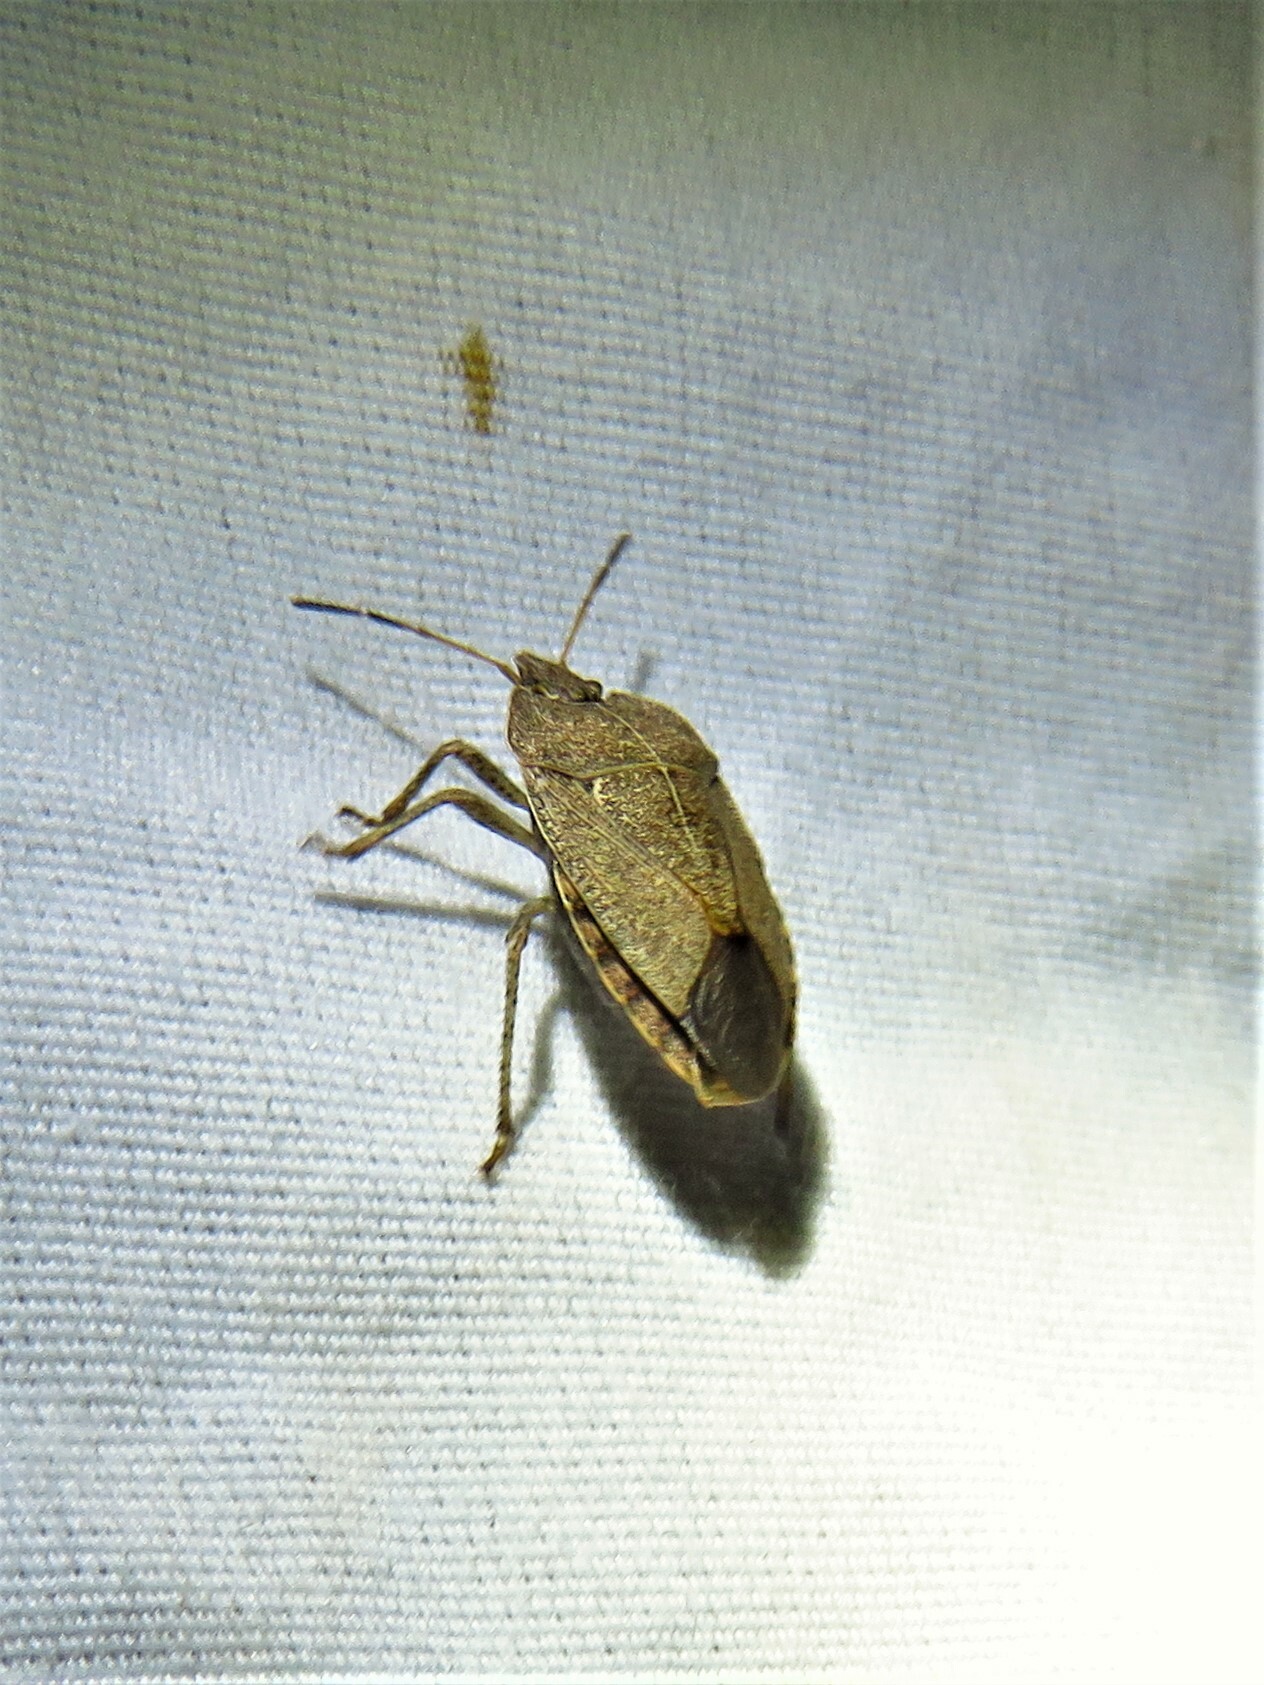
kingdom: Animalia
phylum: Arthropoda
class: Insecta
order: Hemiptera
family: Pentatomidae
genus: Menecles
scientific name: Menecles insertus
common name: Elf shoe stink bug
